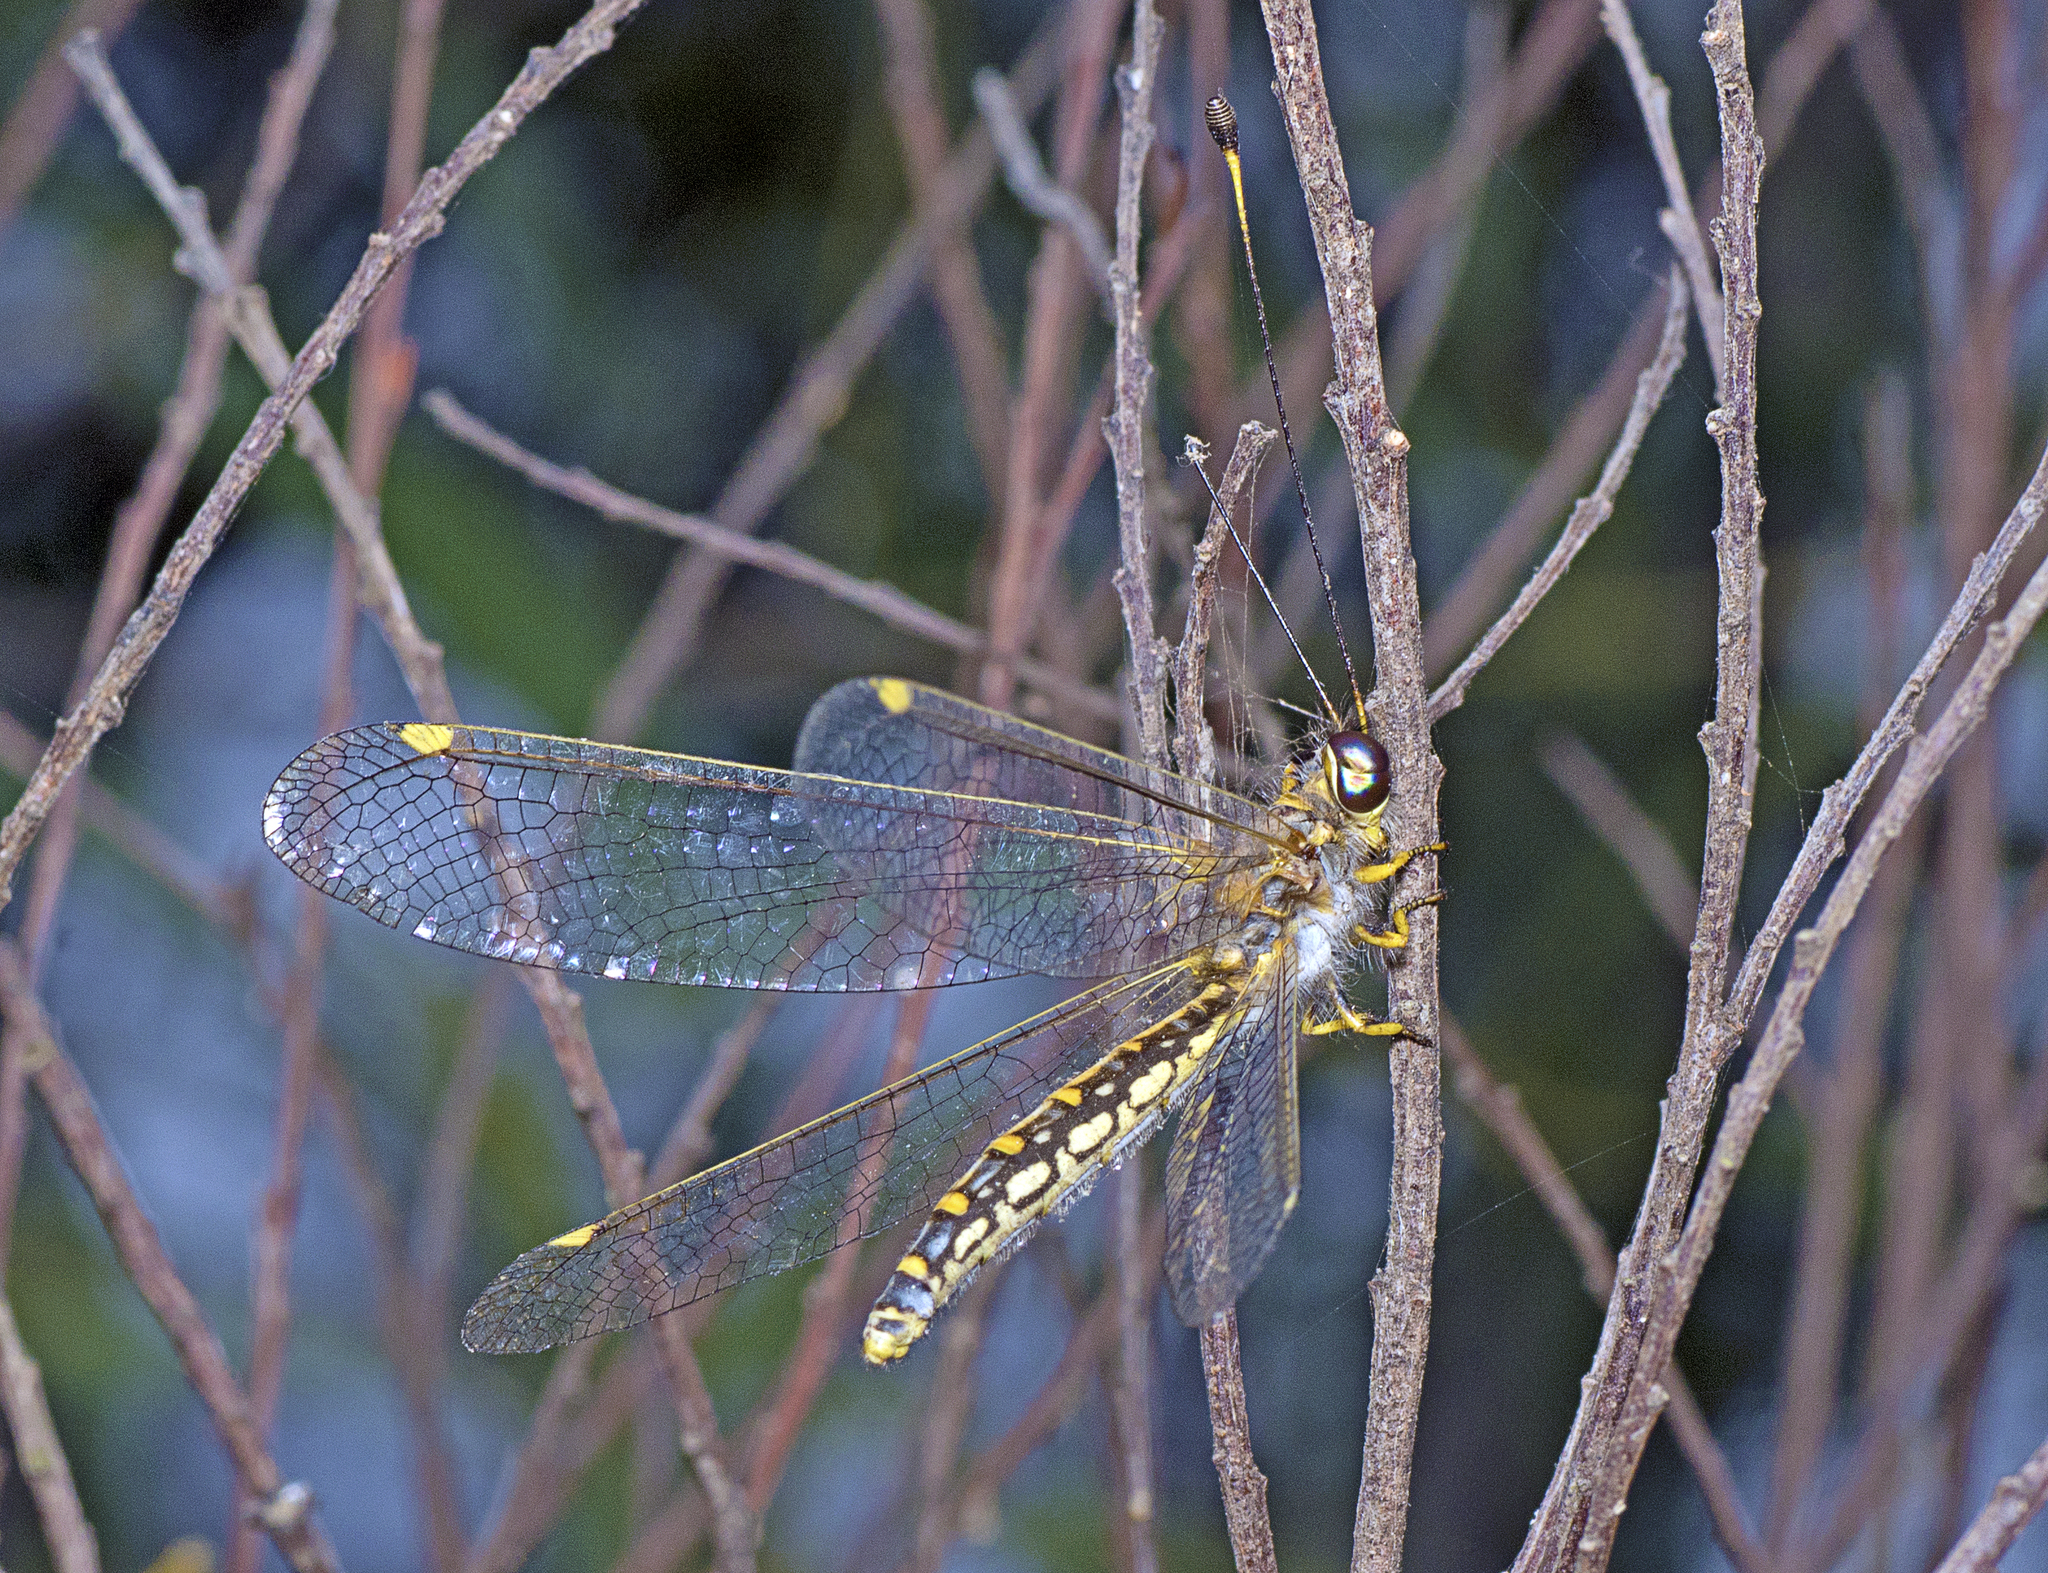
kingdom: Animalia
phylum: Arthropoda
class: Insecta
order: Neuroptera
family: Ascalaphidae
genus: Suhpalacsa
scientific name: Suhpalacsa flavipes
